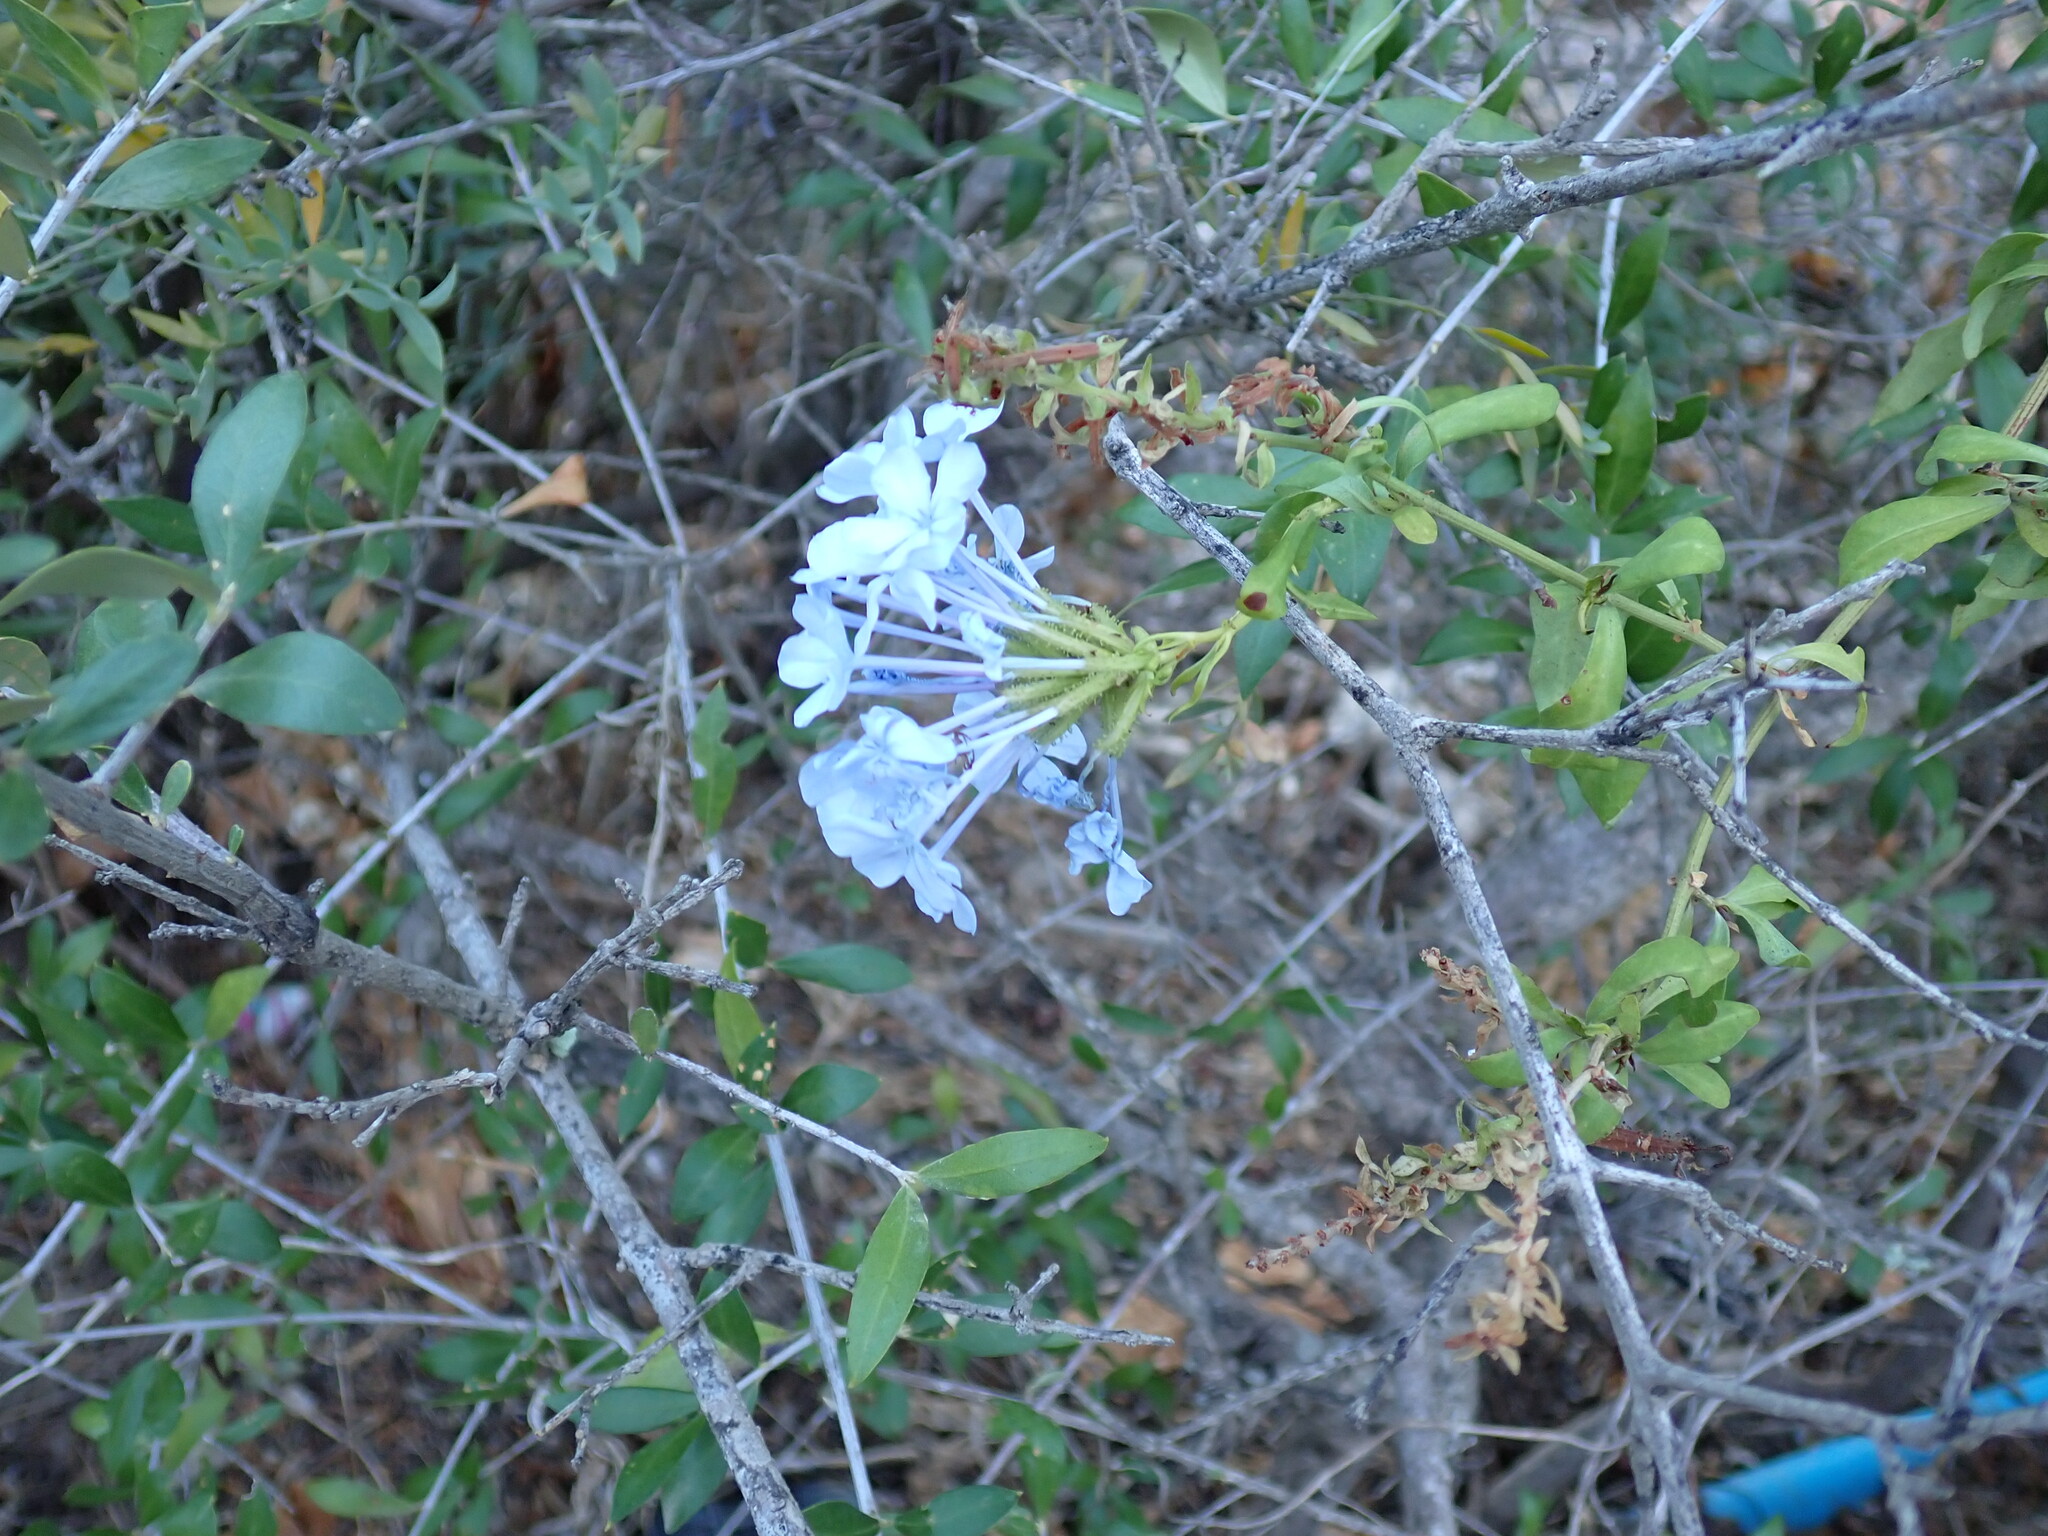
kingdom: Plantae
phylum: Tracheophyta
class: Magnoliopsida
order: Caryophyllales
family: Plumbaginaceae
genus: Plumbago
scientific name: Plumbago auriculata
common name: Cape leadwort
